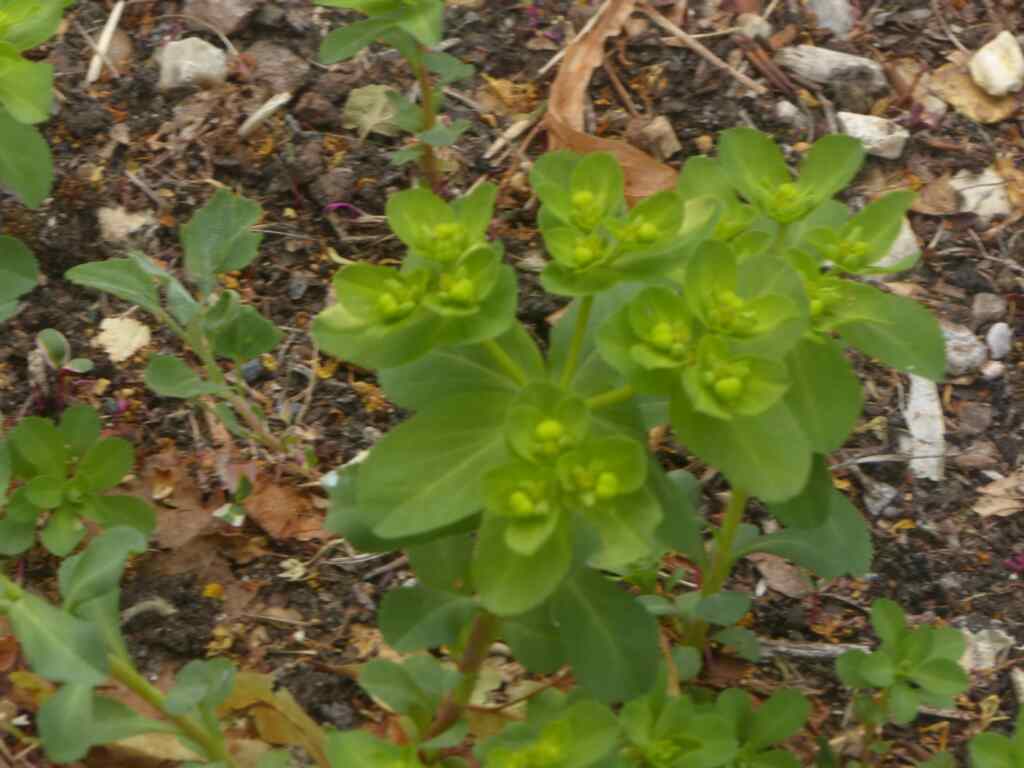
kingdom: Plantae
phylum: Tracheophyta
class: Magnoliopsida
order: Malpighiales
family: Euphorbiaceae
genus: Euphorbia
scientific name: Euphorbia helioscopia
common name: Sun spurge
